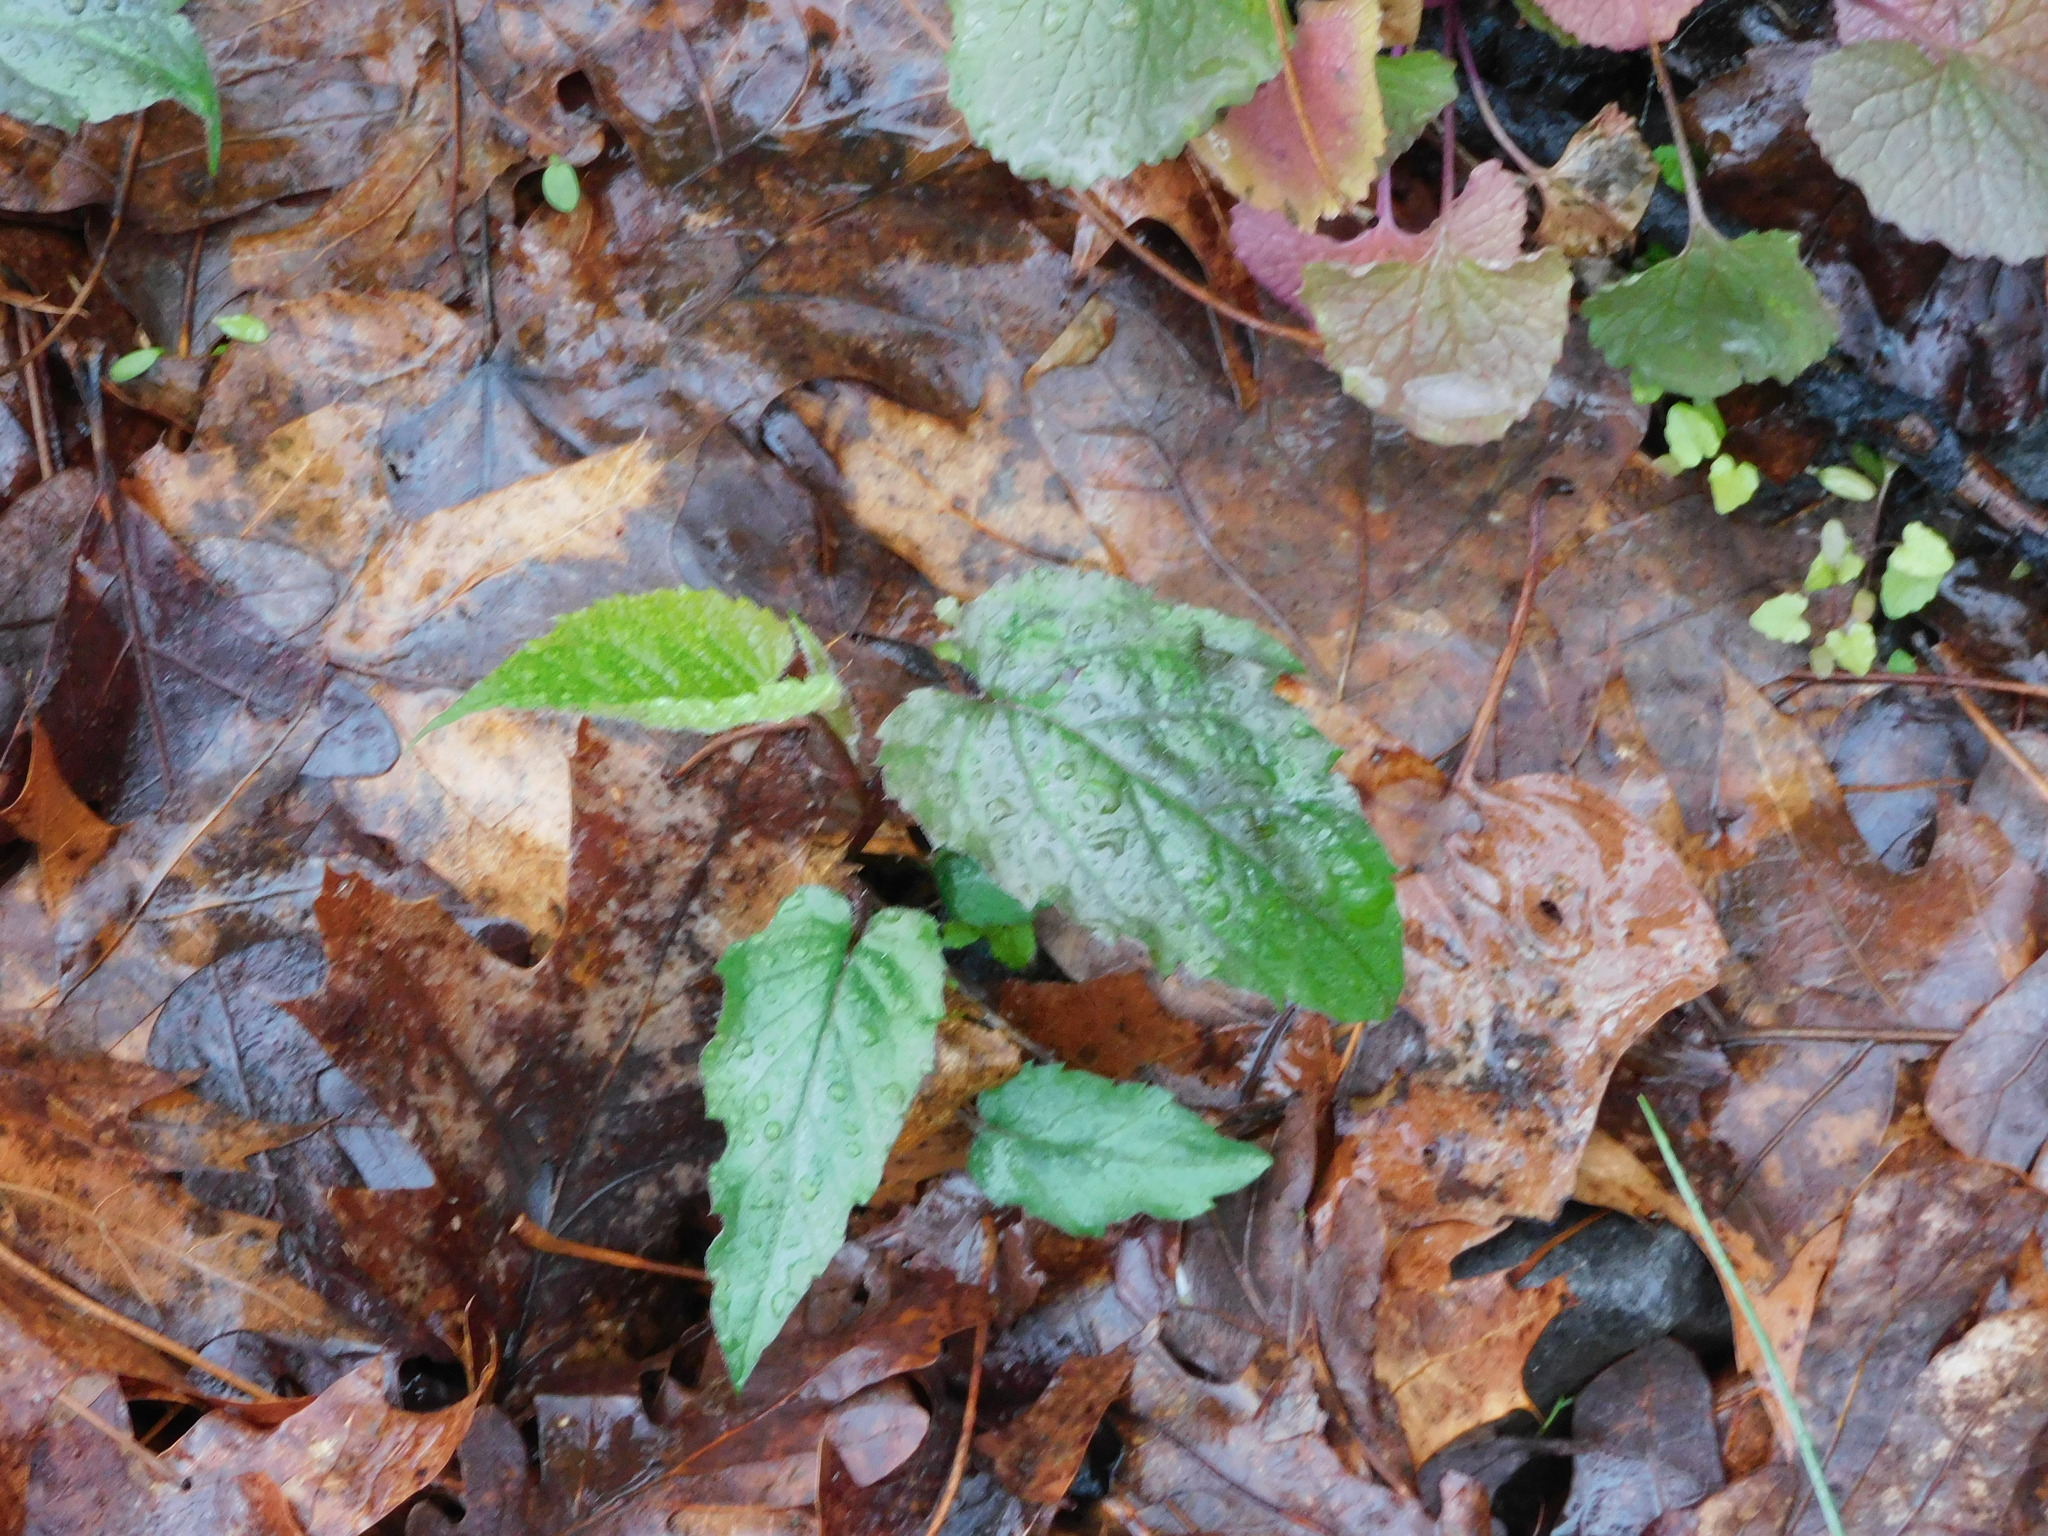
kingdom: Plantae
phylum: Tracheophyta
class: Magnoliopsida
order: Asterales
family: Asteraceae
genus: Eurybia
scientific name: Eurybia divaricata
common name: White wood aster
